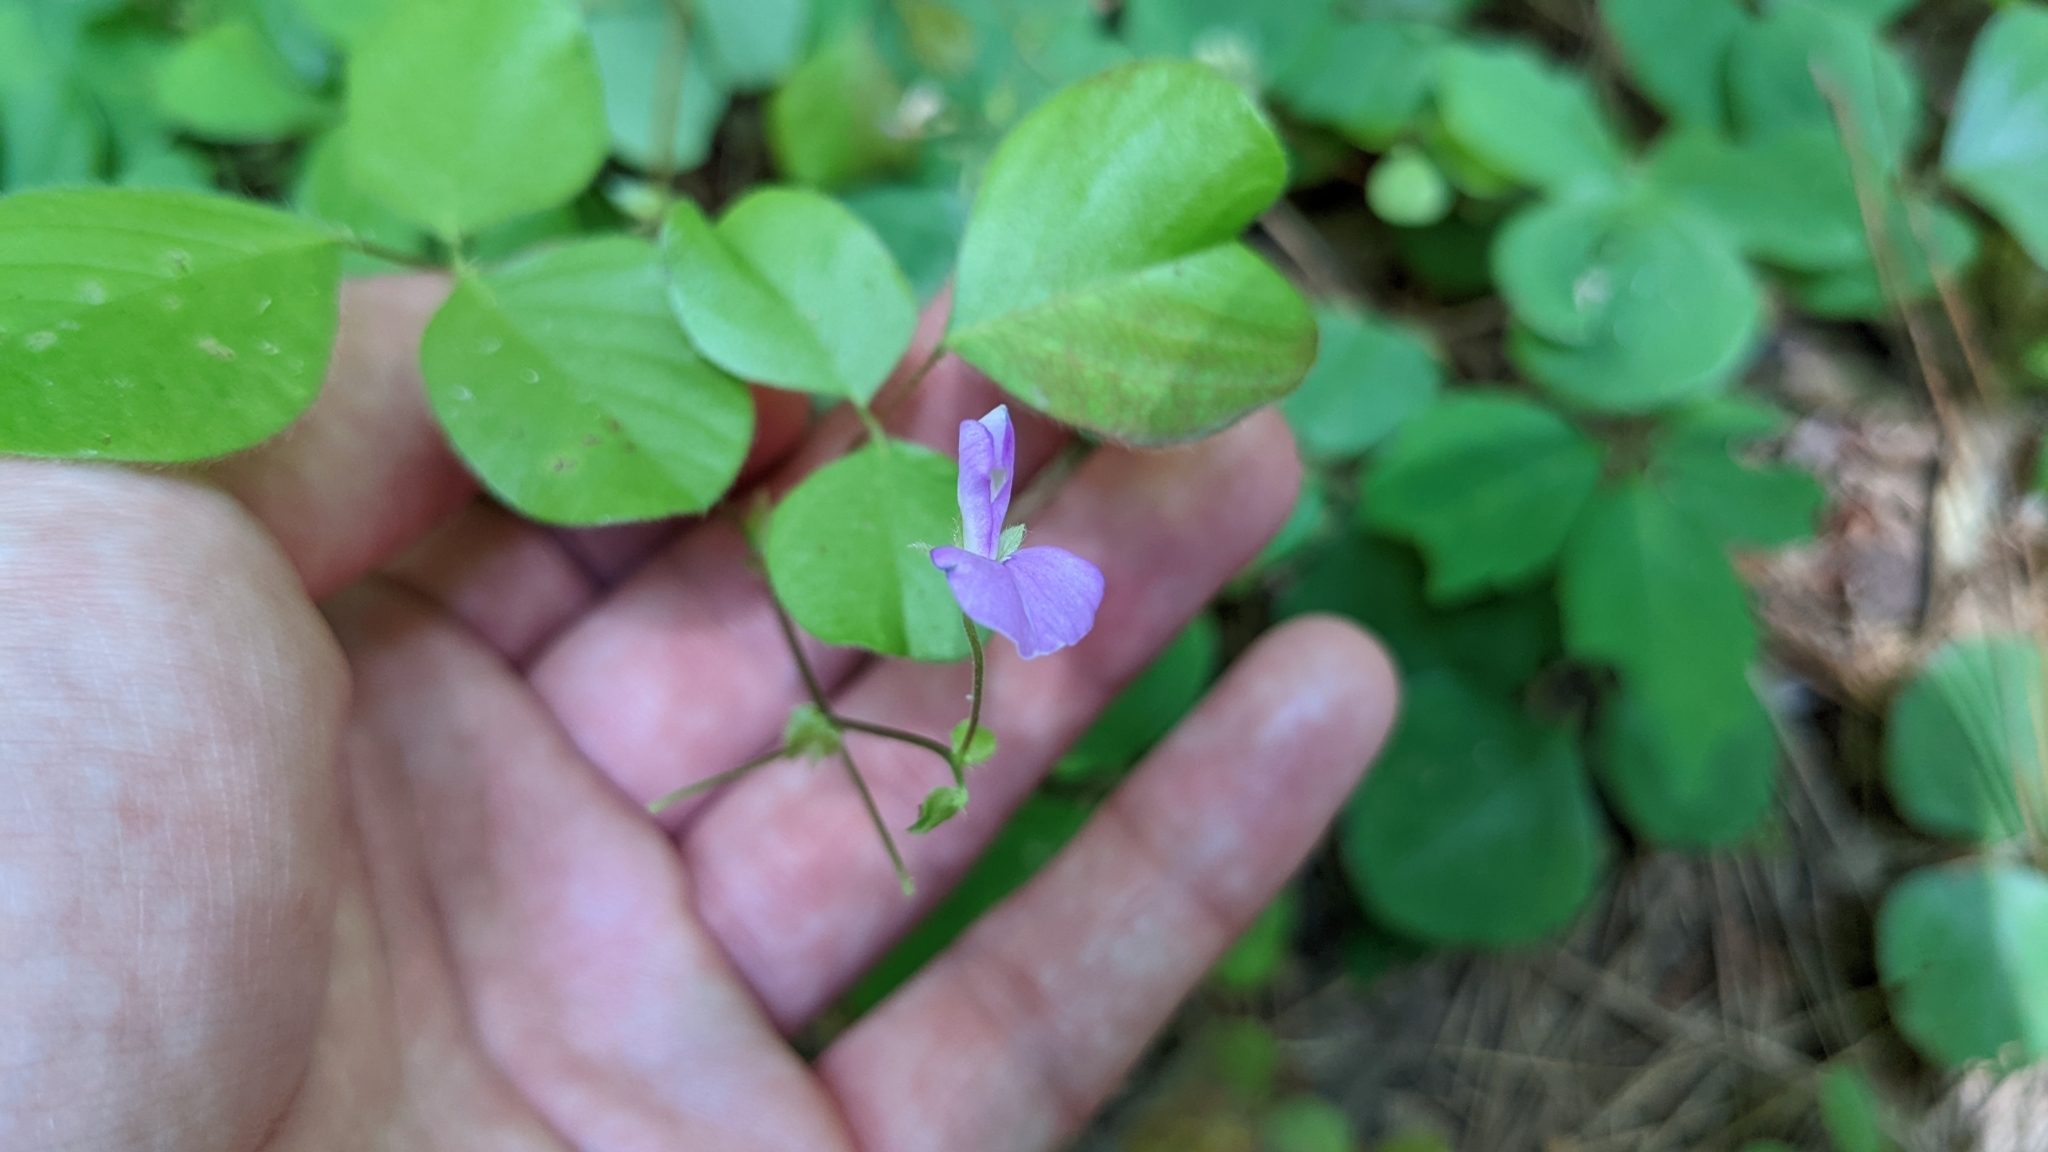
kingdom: Plantae
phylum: Tracheophyta
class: Magnoliopsida
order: Fabales
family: Fabaceae
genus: Desmodium
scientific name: Desmodium rotundifolium
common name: Dollarleaf
